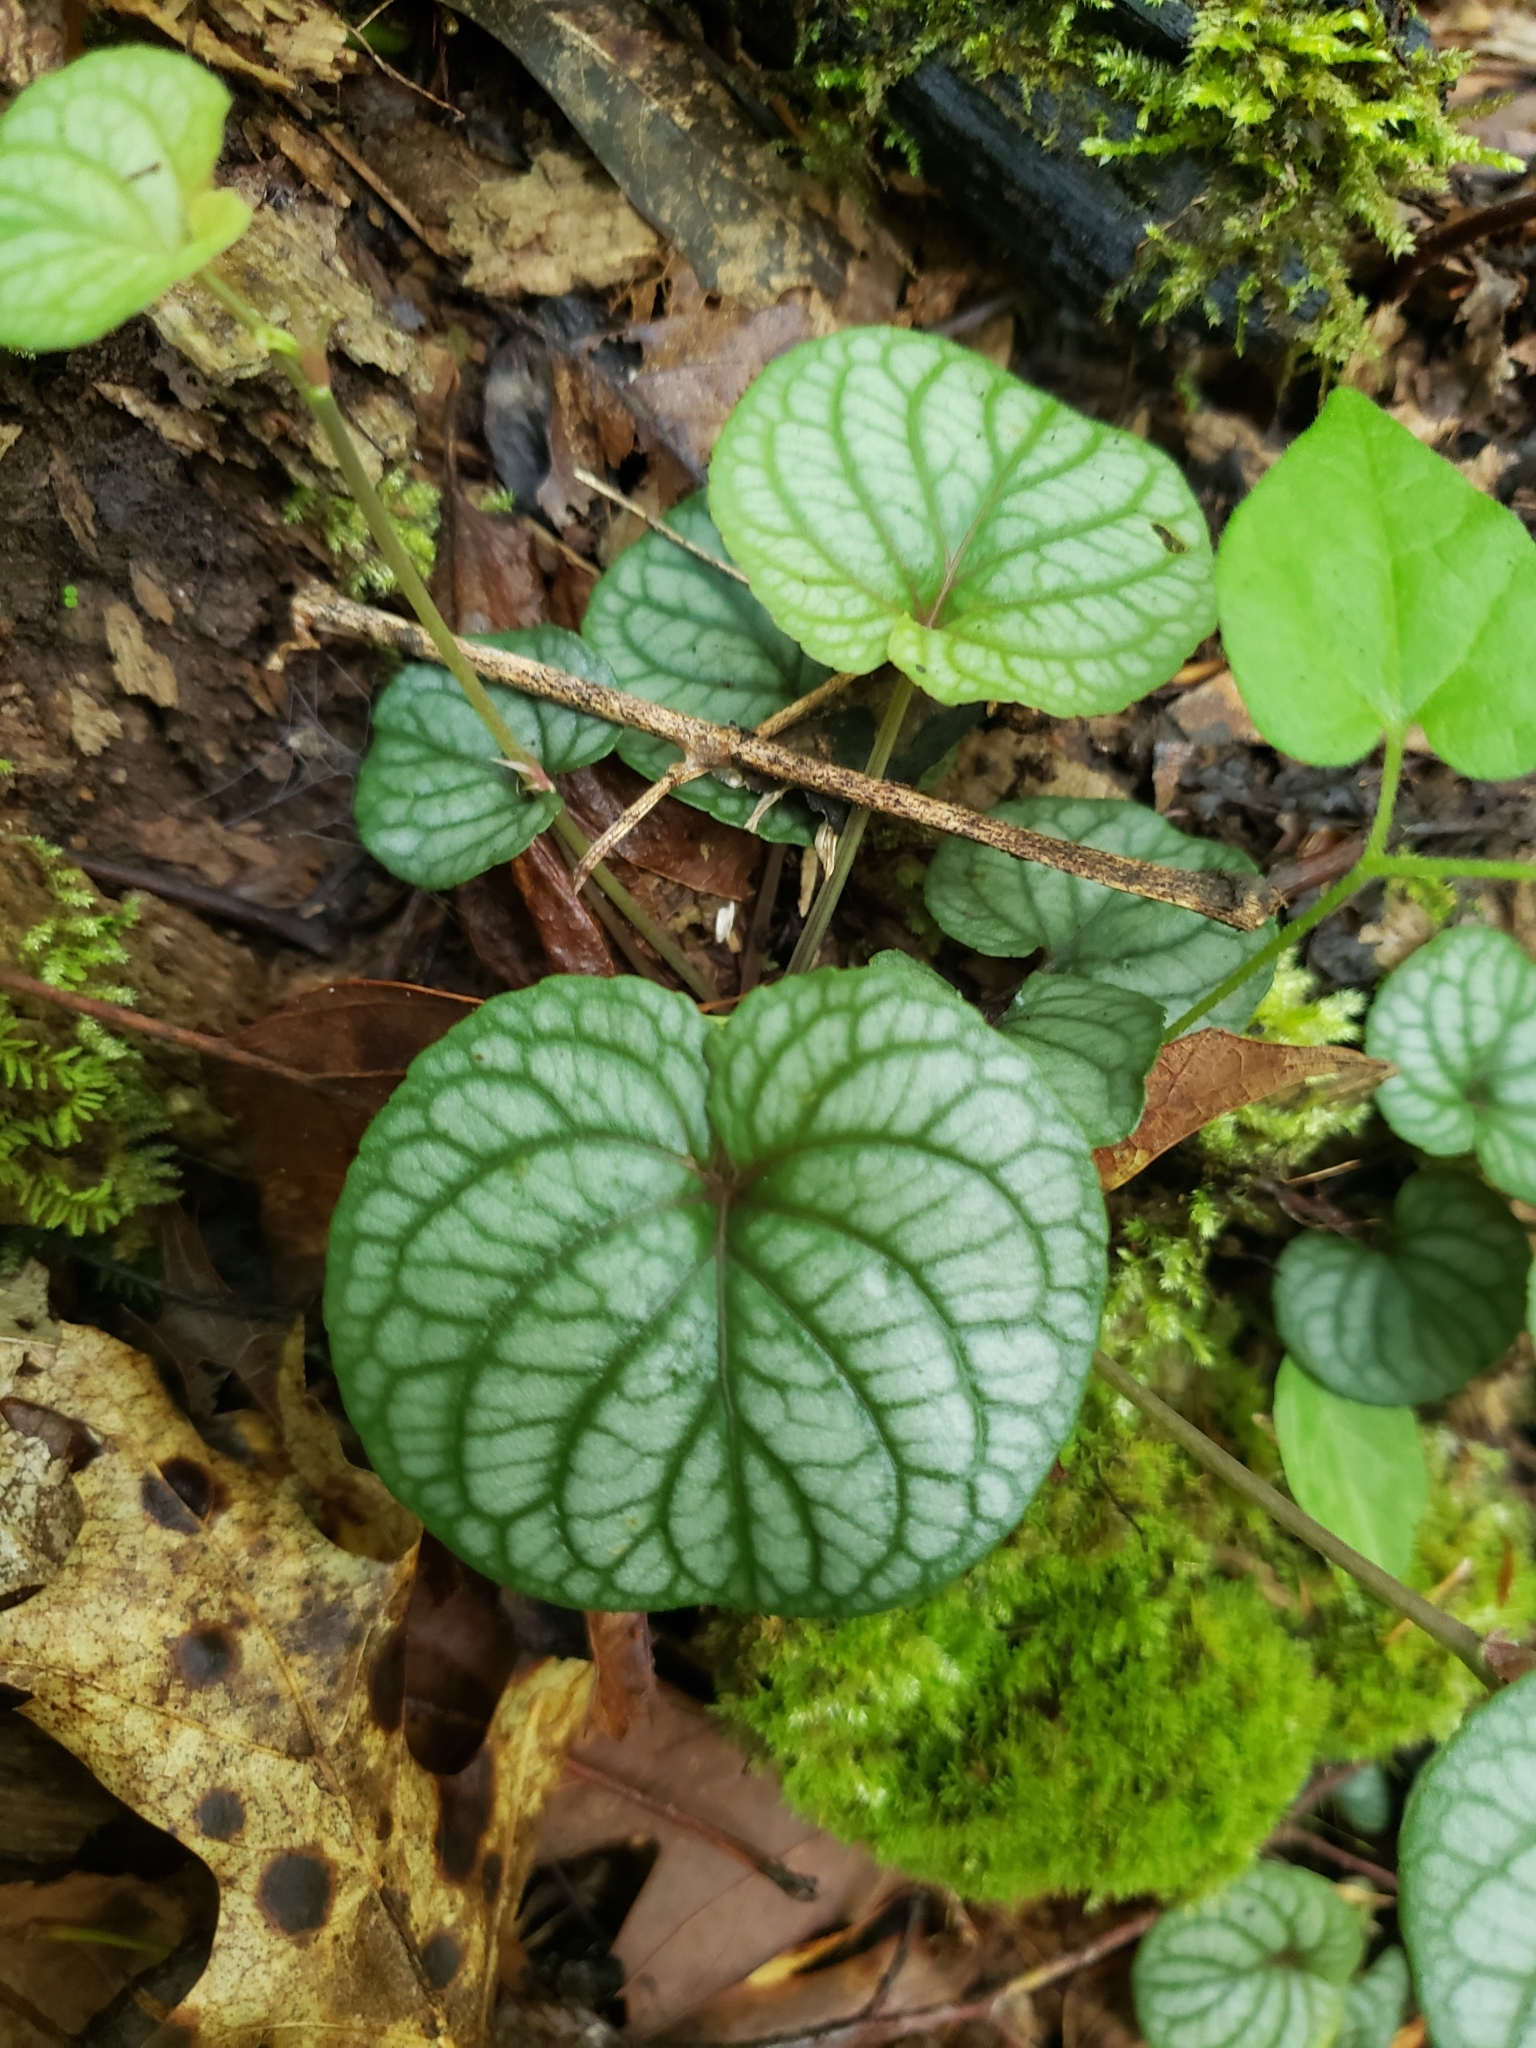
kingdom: Plantae
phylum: Tracheophyta
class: Magnoliopsida
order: Malpighiales
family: Violaceae
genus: Viola
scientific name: Viola walteri
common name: Prostrate southern violet
